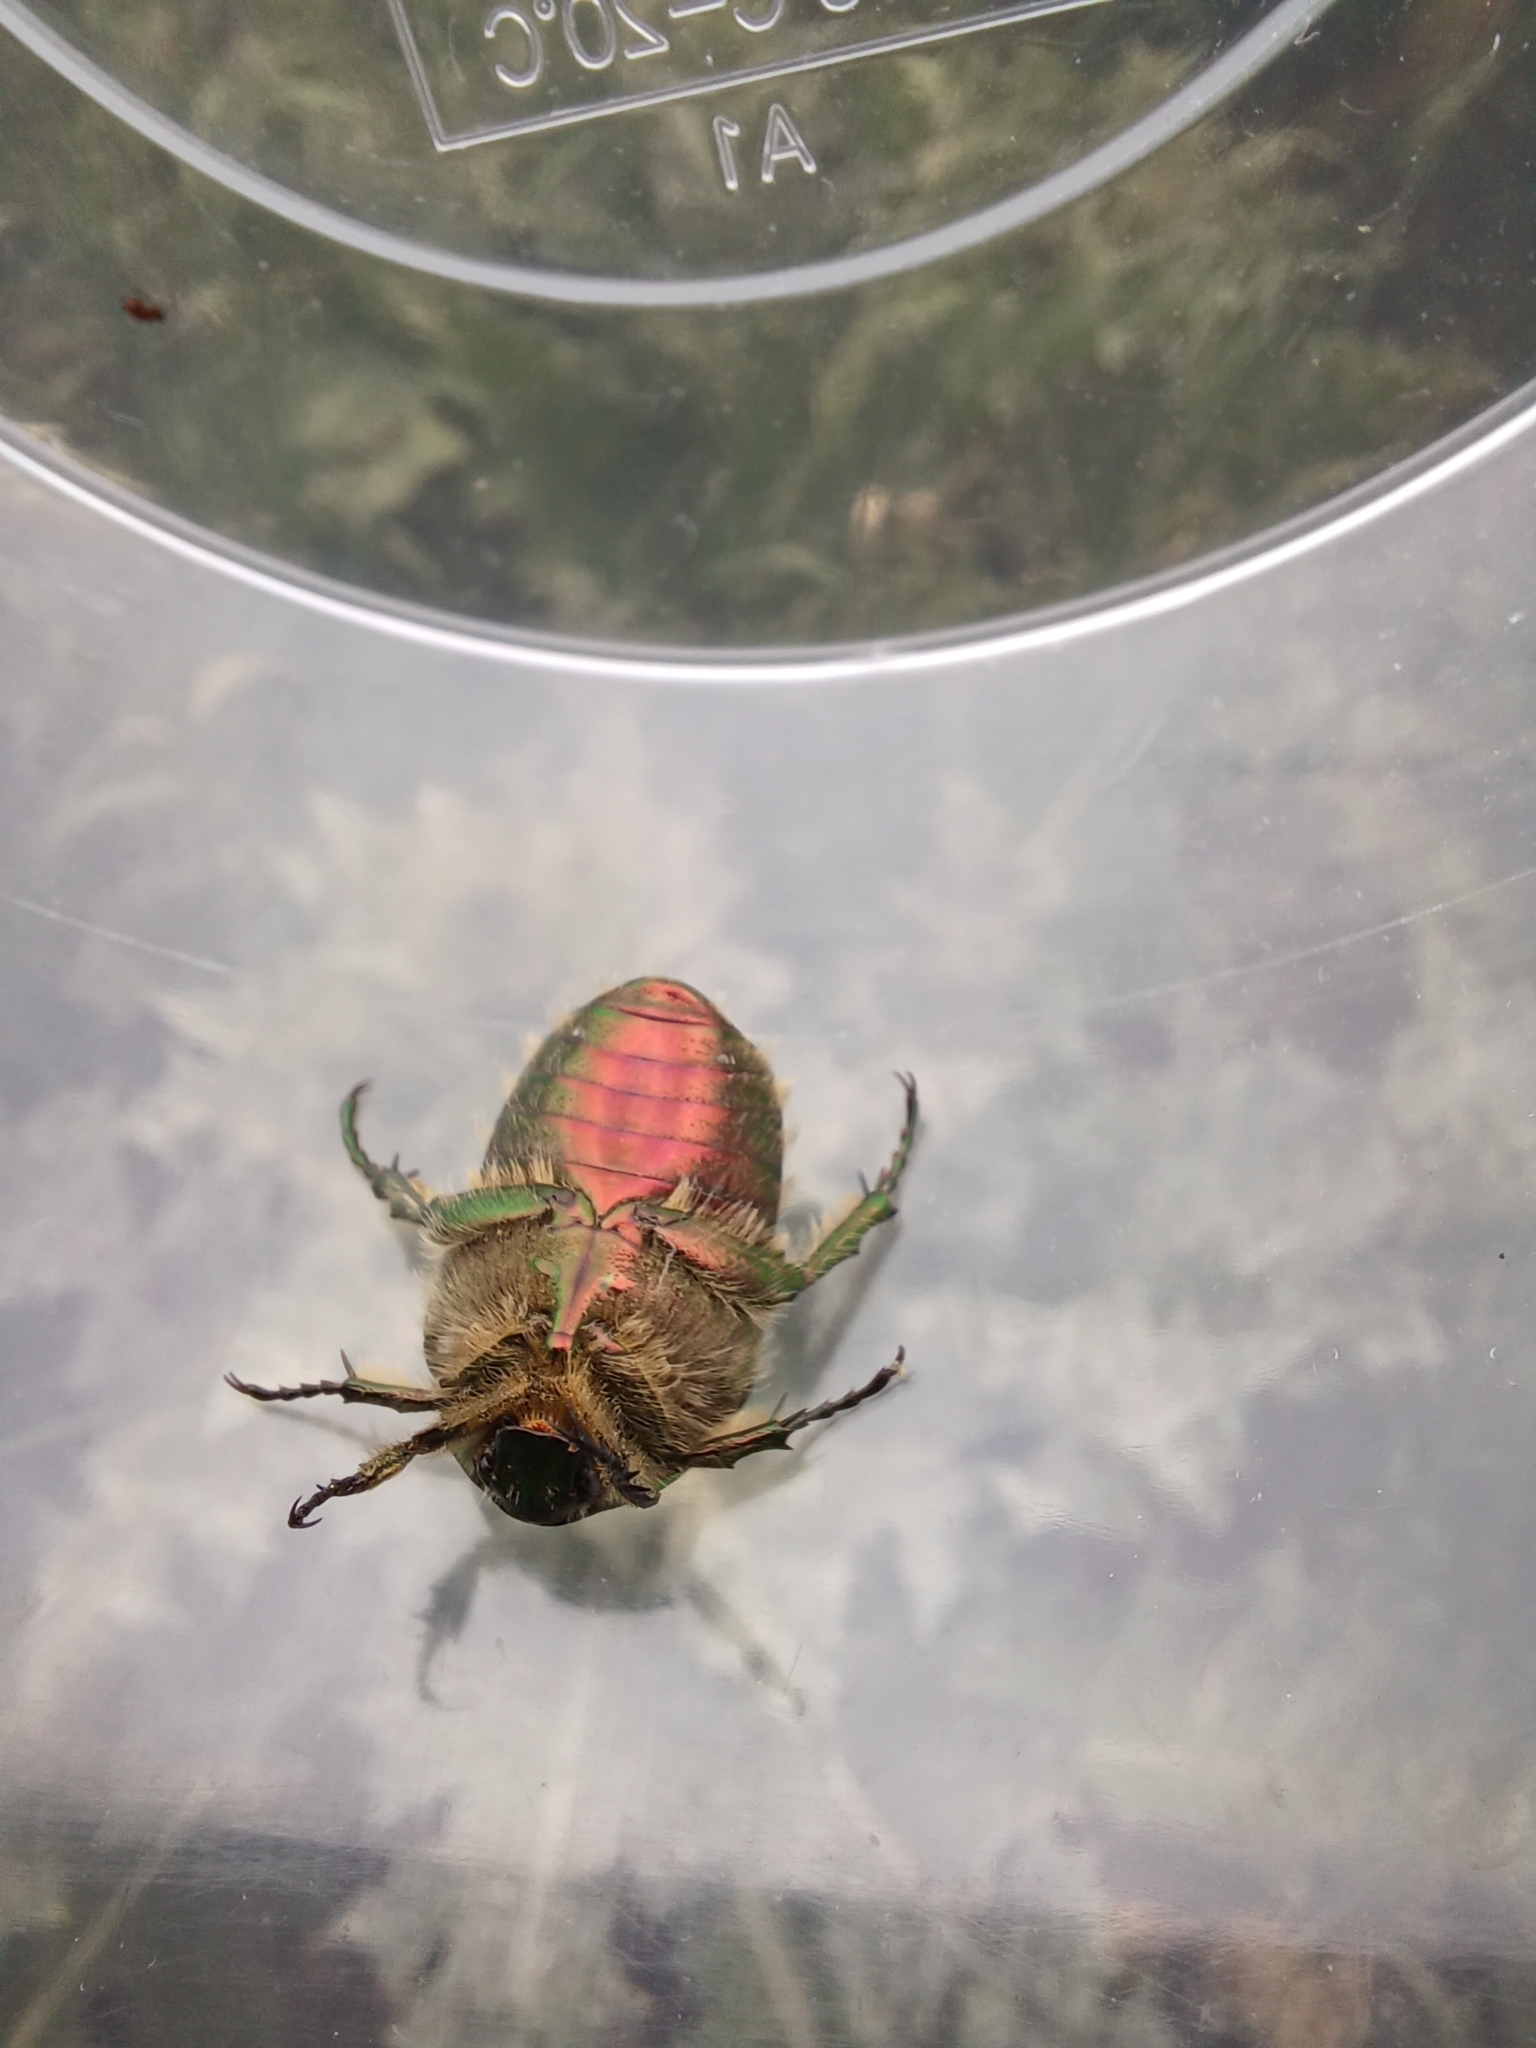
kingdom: Animalia
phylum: Arthropoda
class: Insecta
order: Coleoptera
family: Scarabaeidae
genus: Cetonia
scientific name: Cetonia aurata
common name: Rose chafer
